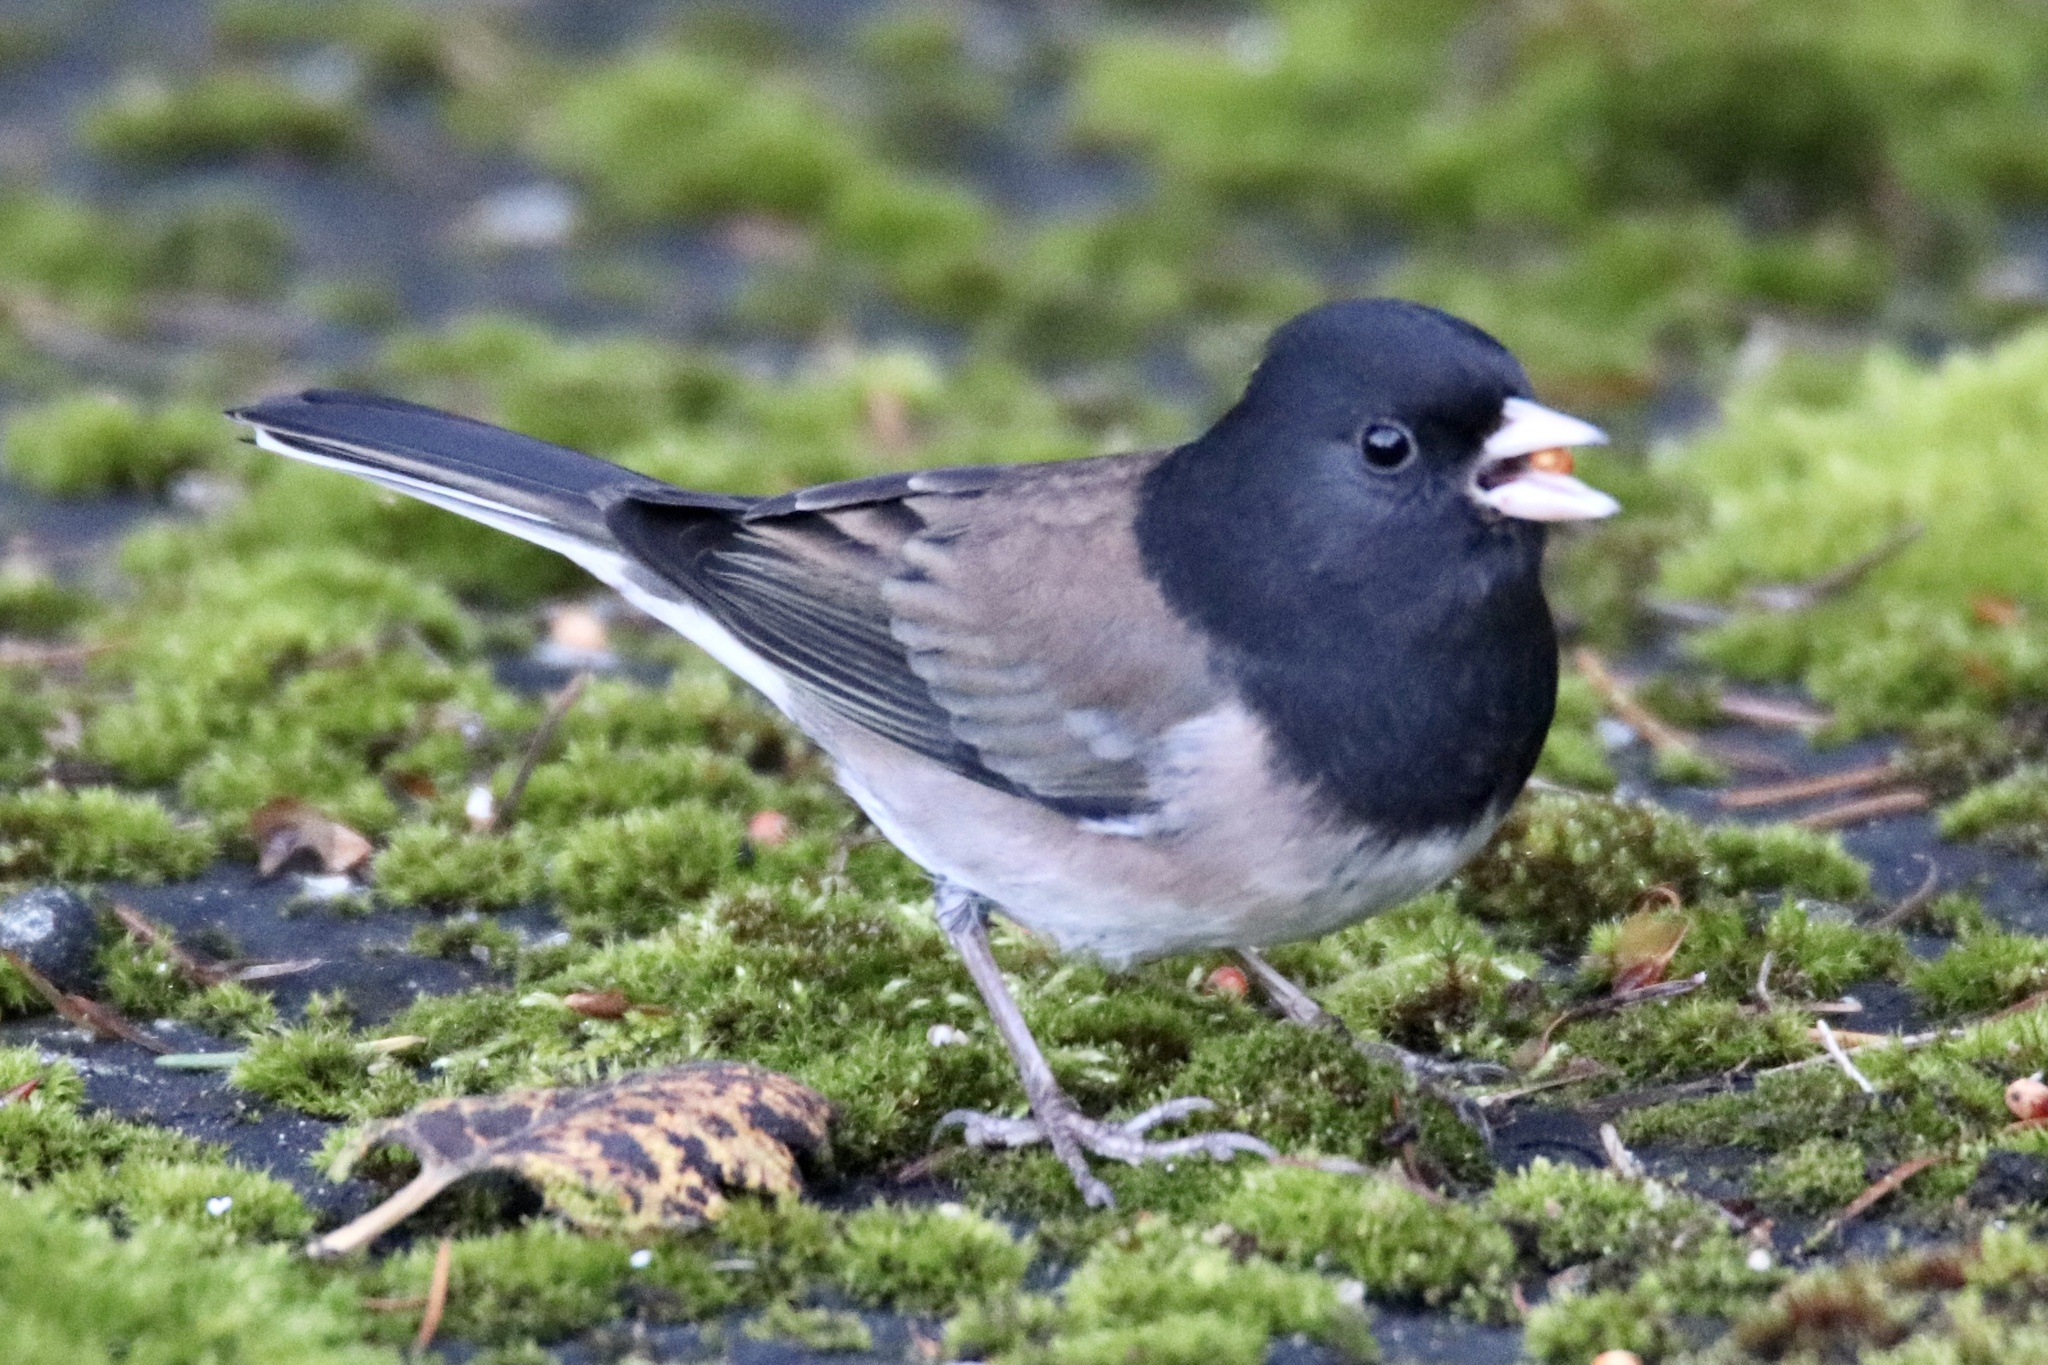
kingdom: Animalia
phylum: Chordata
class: Aves
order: Passeriformes
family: Passerellidae
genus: Junco
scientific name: Junco hyemalis
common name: Dark-eyed junco
